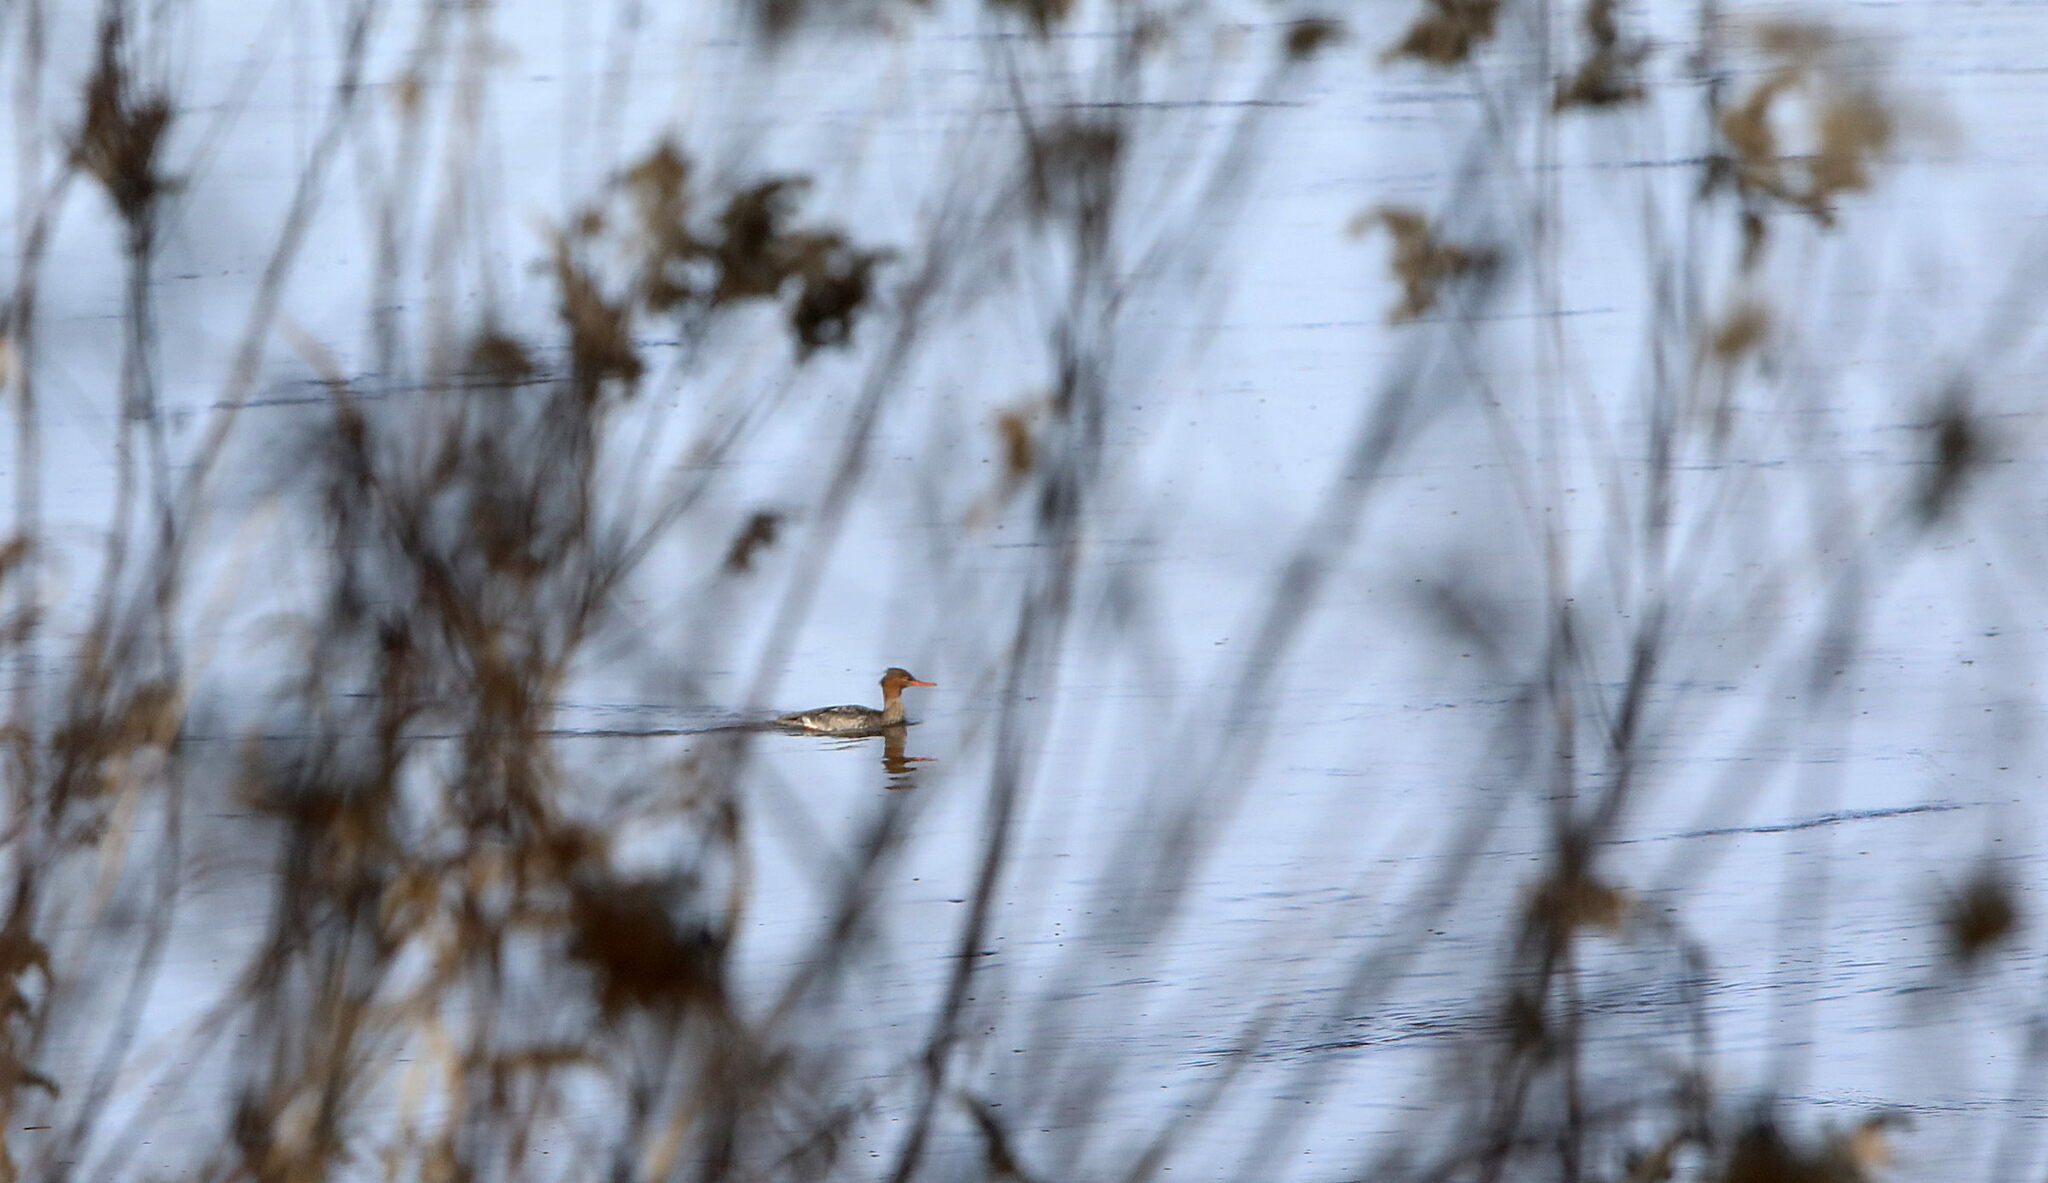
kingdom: Animalia
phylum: Chordata
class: Aves
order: Anseriformes
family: Anatidae
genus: Mergus
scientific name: Mergus serrator
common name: Red-breasted merganser
